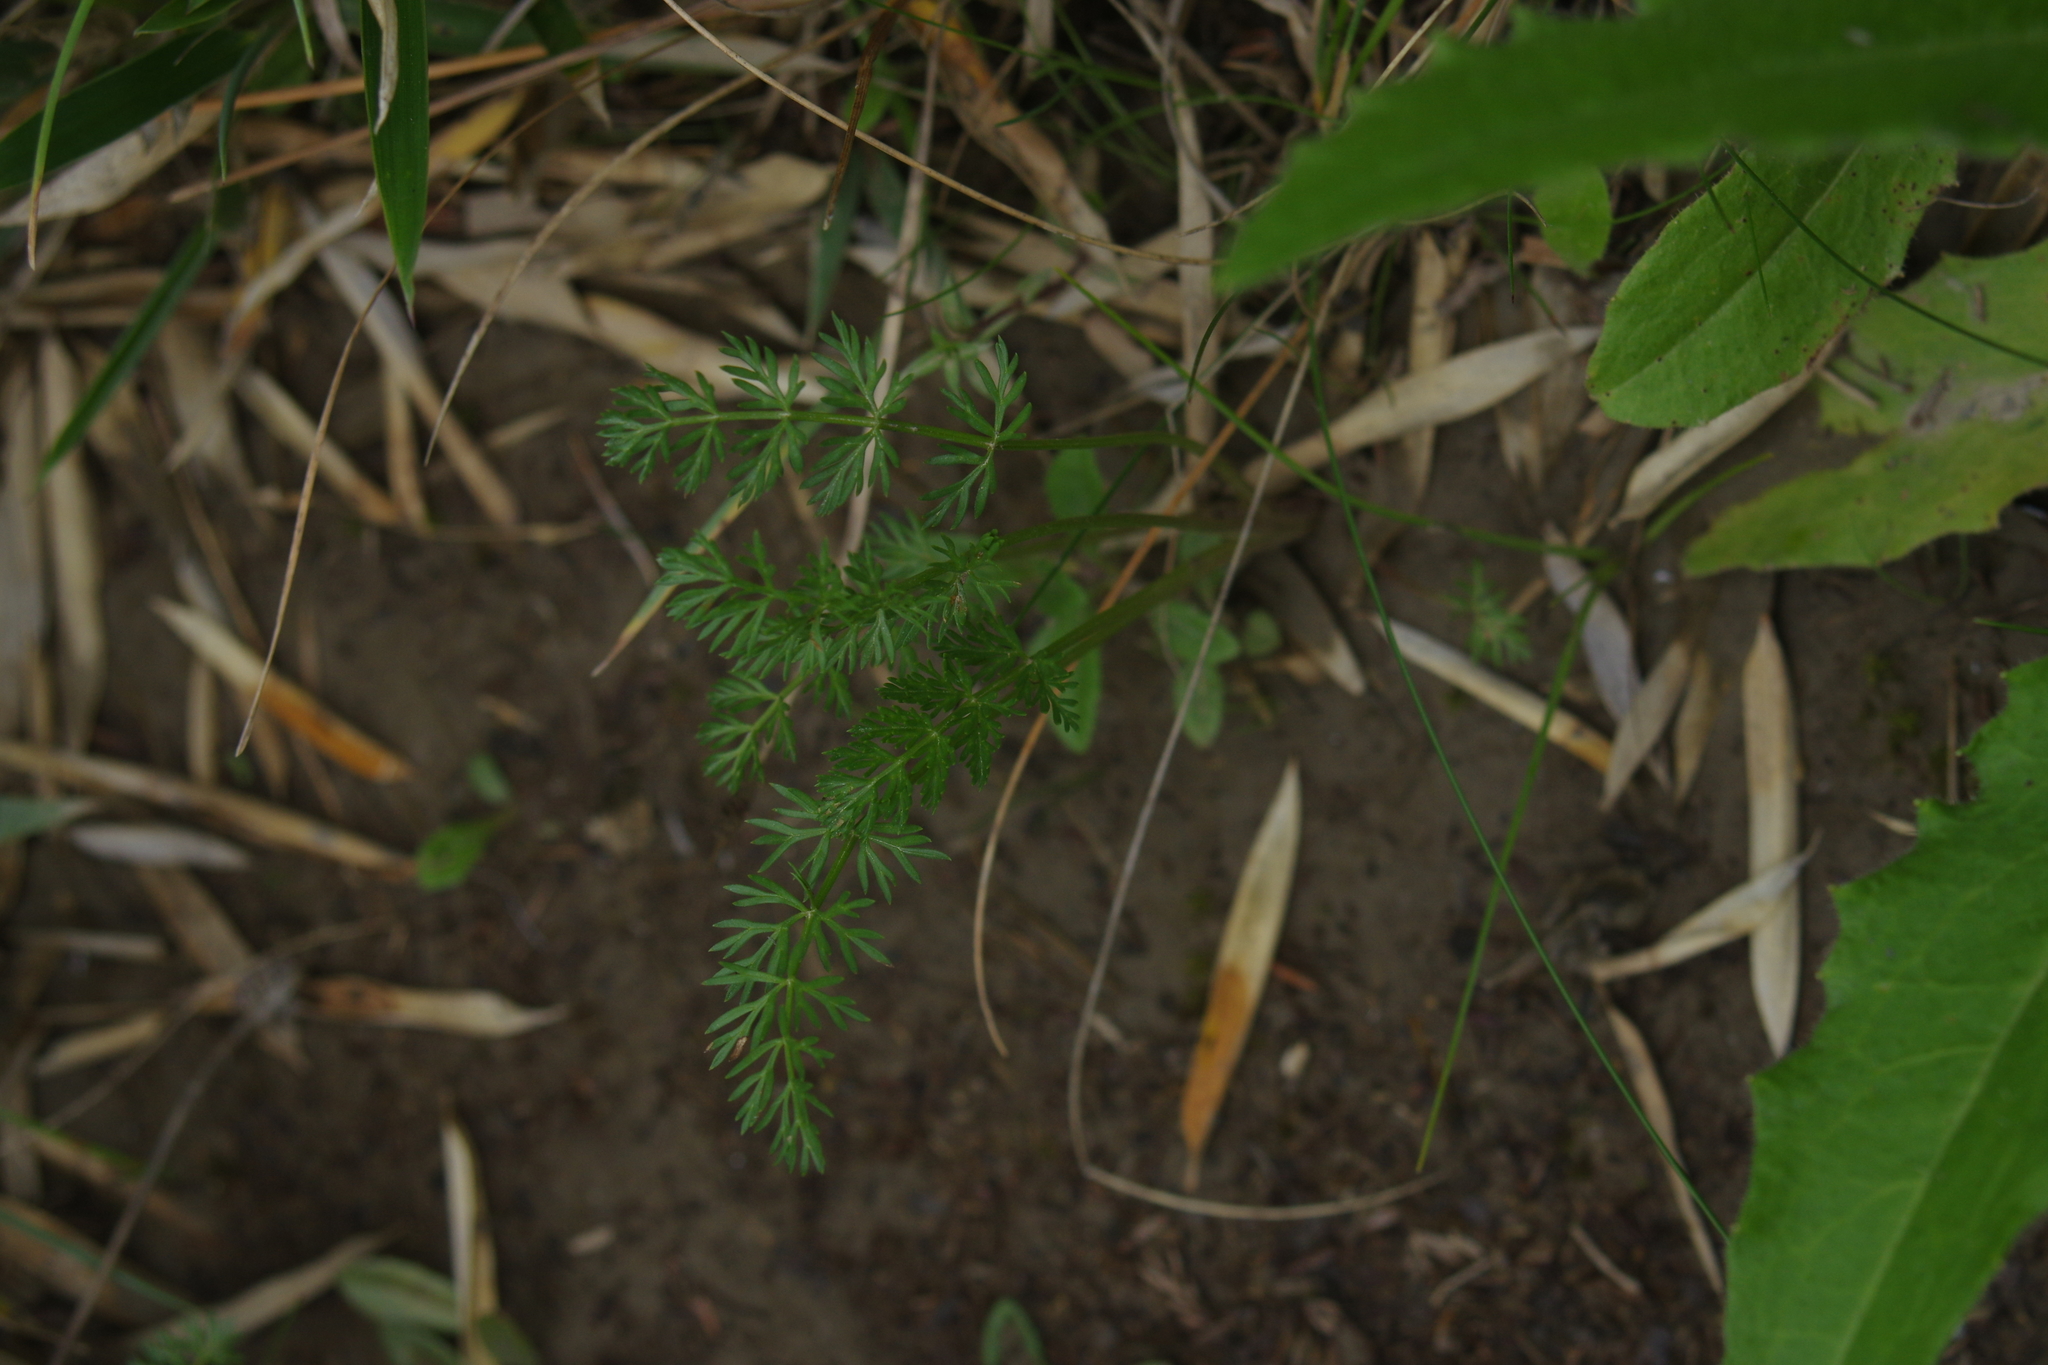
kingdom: Plantae
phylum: Tracheophyta
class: Magnoliopsida
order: Apiales
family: Apiaceae
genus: Chaerophyllum
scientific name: Chaerophyllum involucratum
